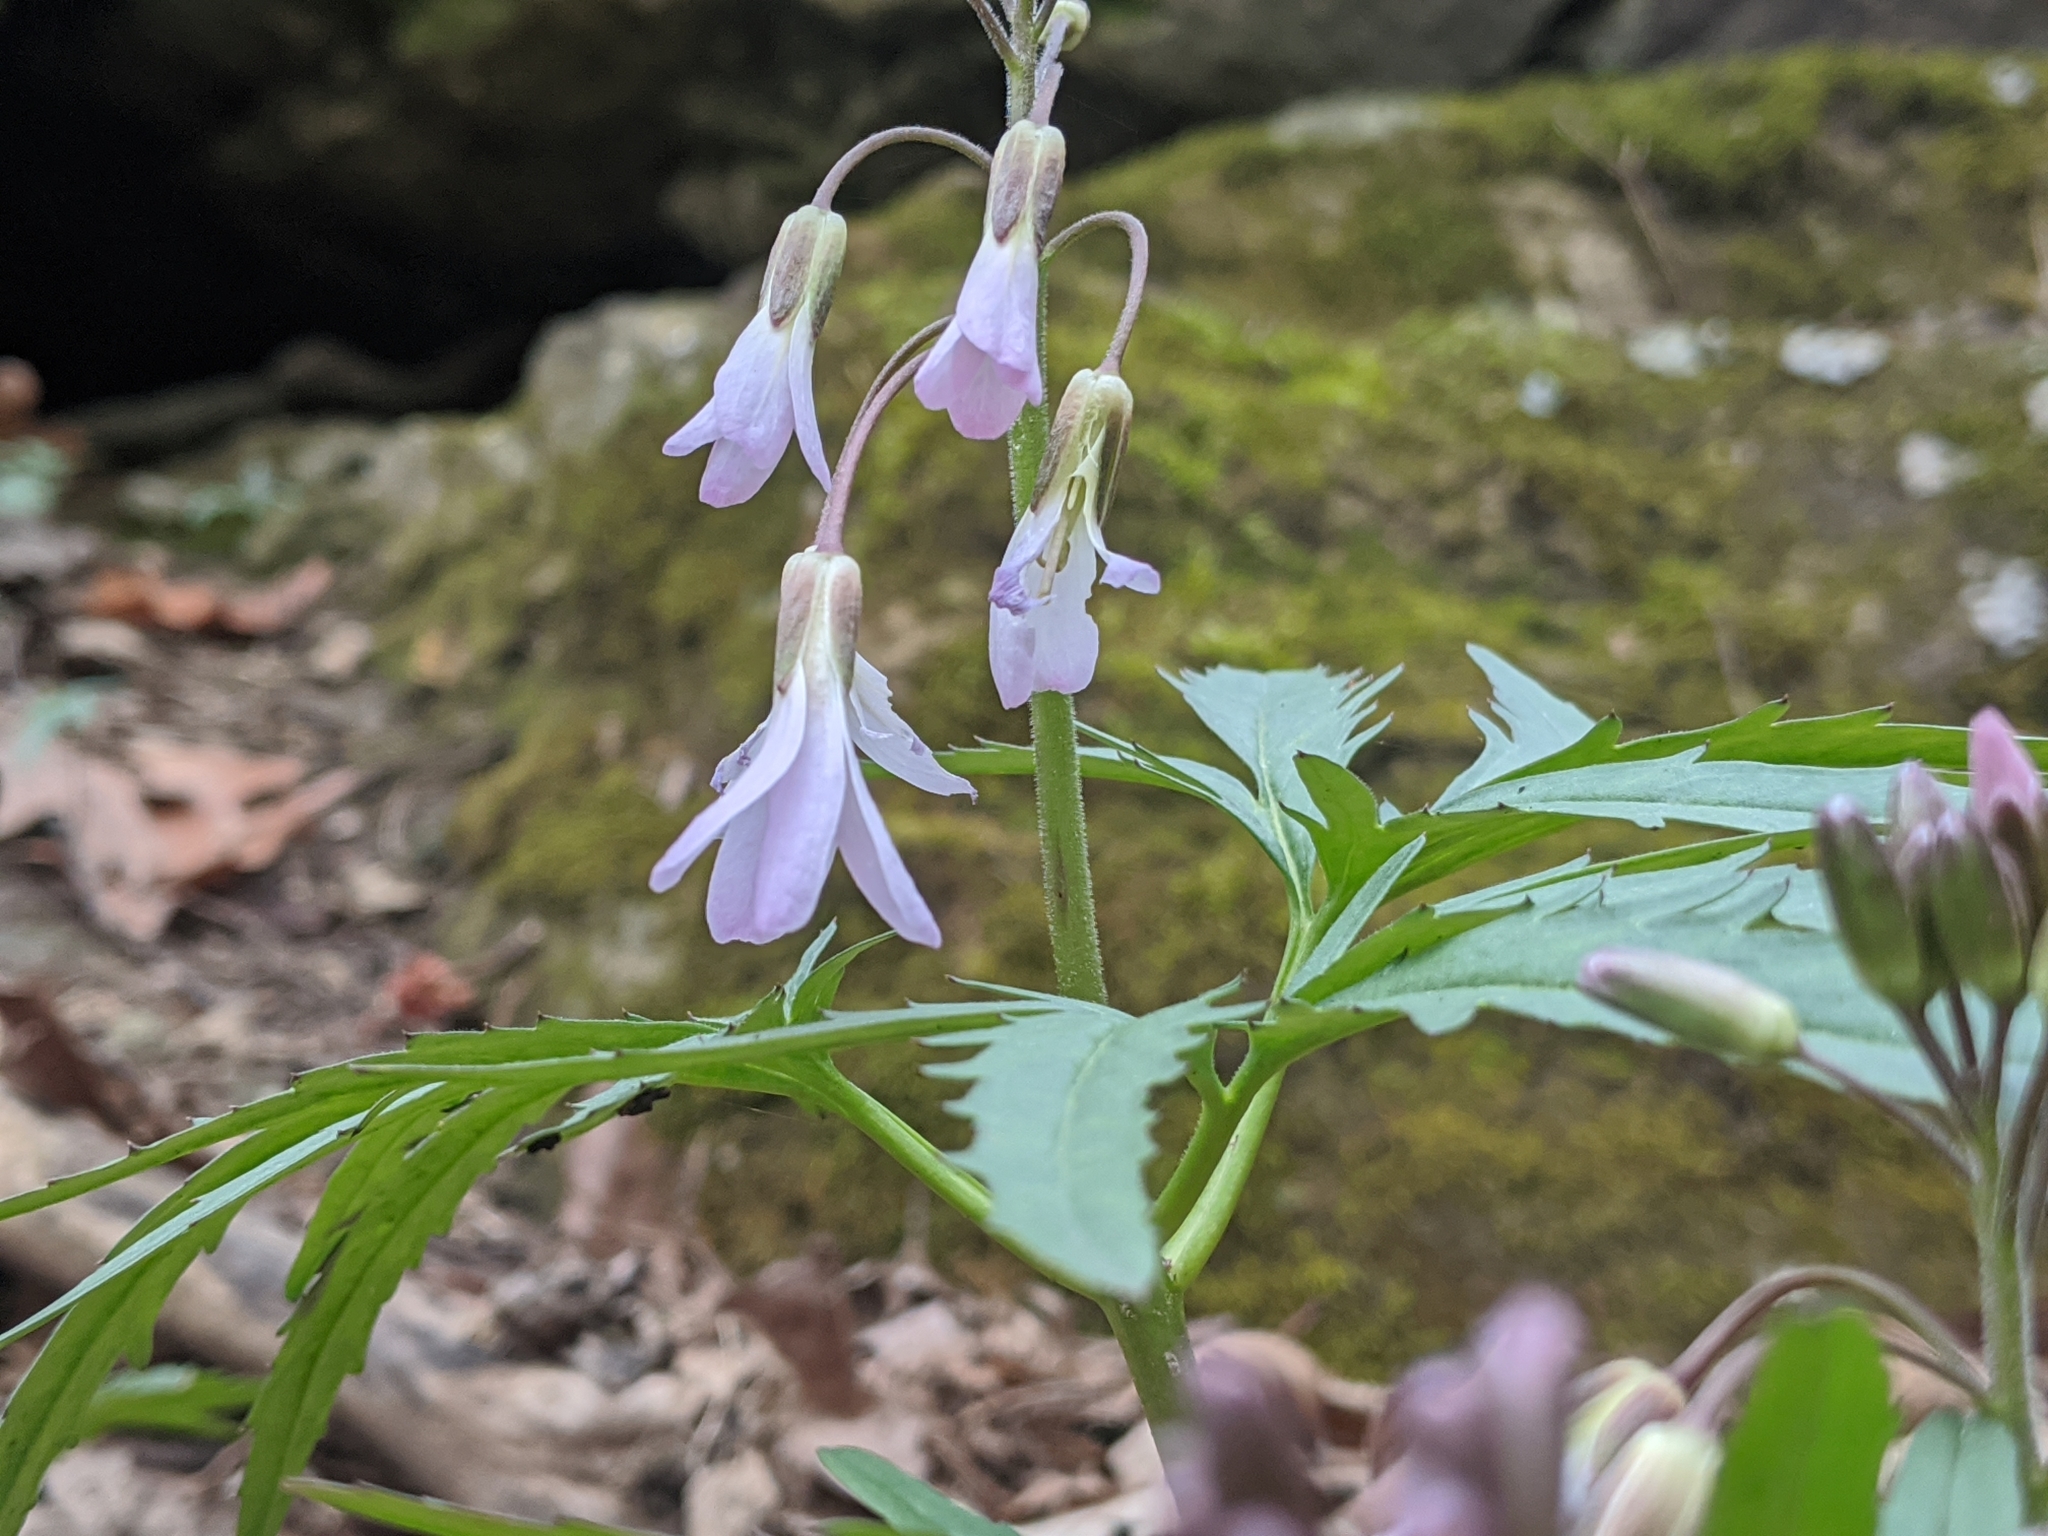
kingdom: Plantae
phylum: Tracheophyta
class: Magnoliopsida
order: Brassicales
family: Brassicaceae
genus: Cardamine
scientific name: Cardamine concatenata
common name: Cut-leaf toothcup
